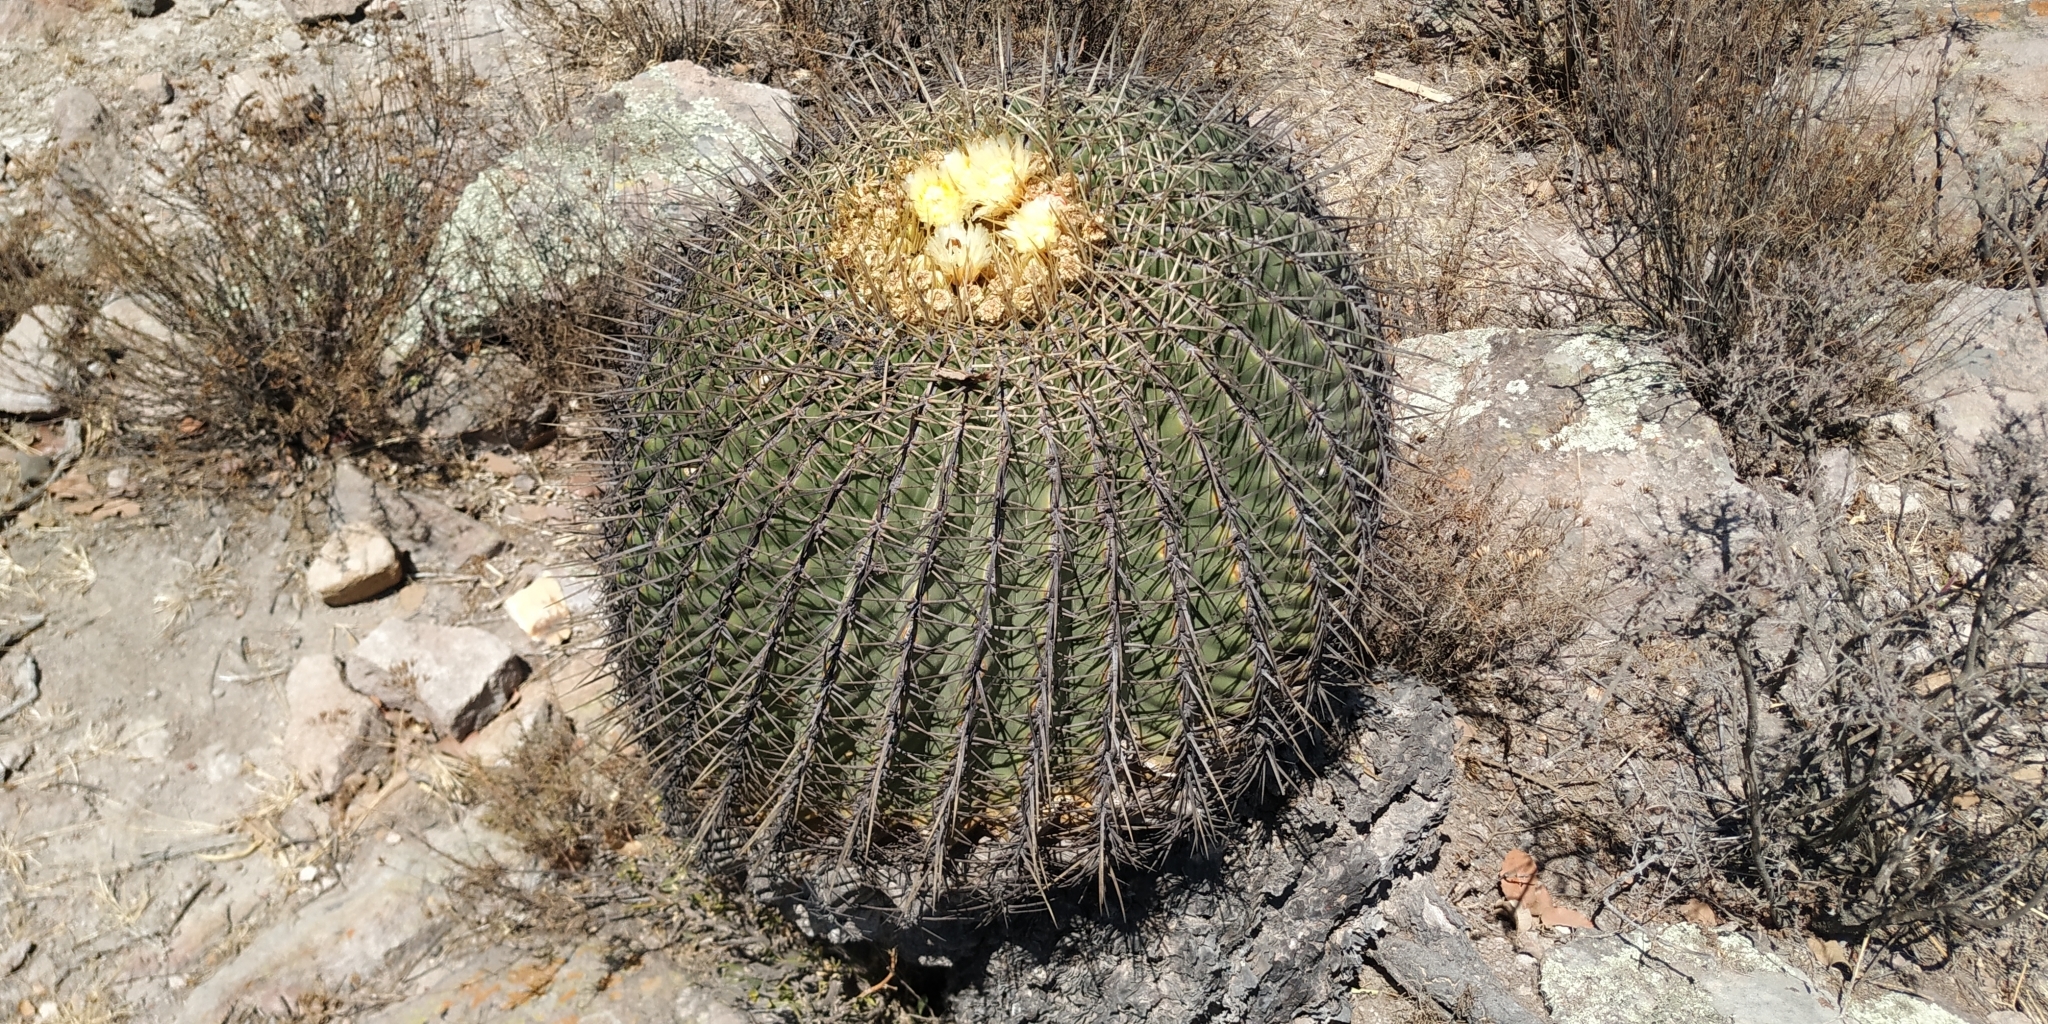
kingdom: Plantae
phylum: Tracheophyta
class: Magnoliopsida
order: Caryophyllales
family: Cactaceae
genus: Bisnaga
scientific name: Bisnaga histrix
